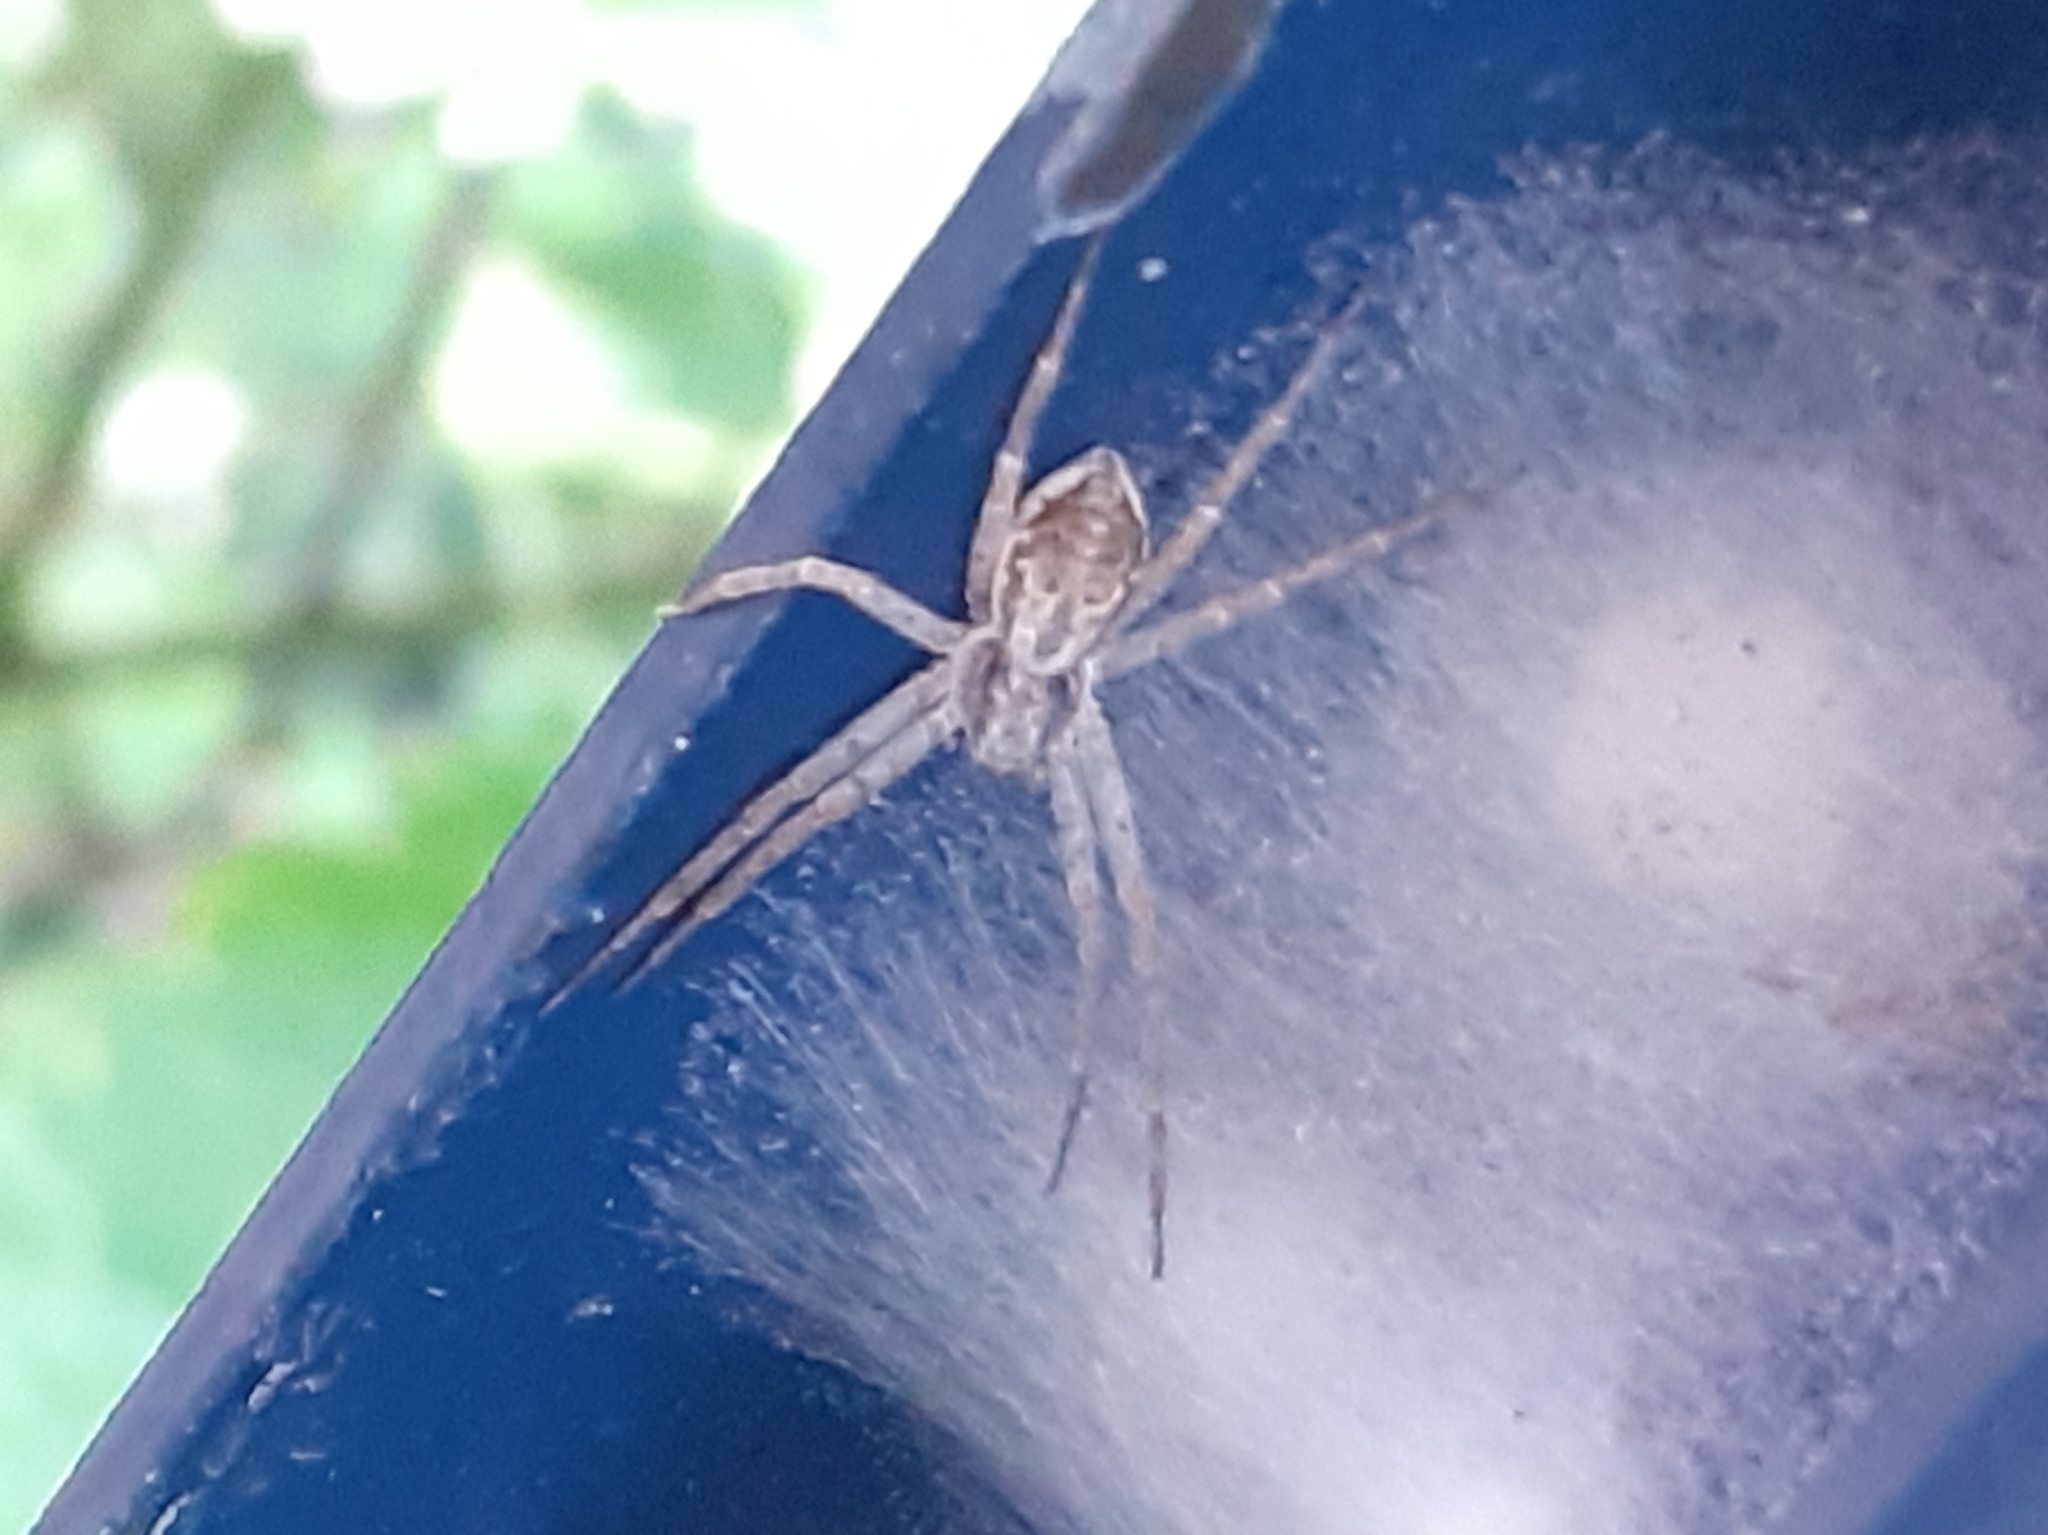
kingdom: Animalia
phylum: Arthropoda
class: Arachnida
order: Araneae
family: Philodromidae
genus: Philodromus
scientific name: Philodromus dispar
